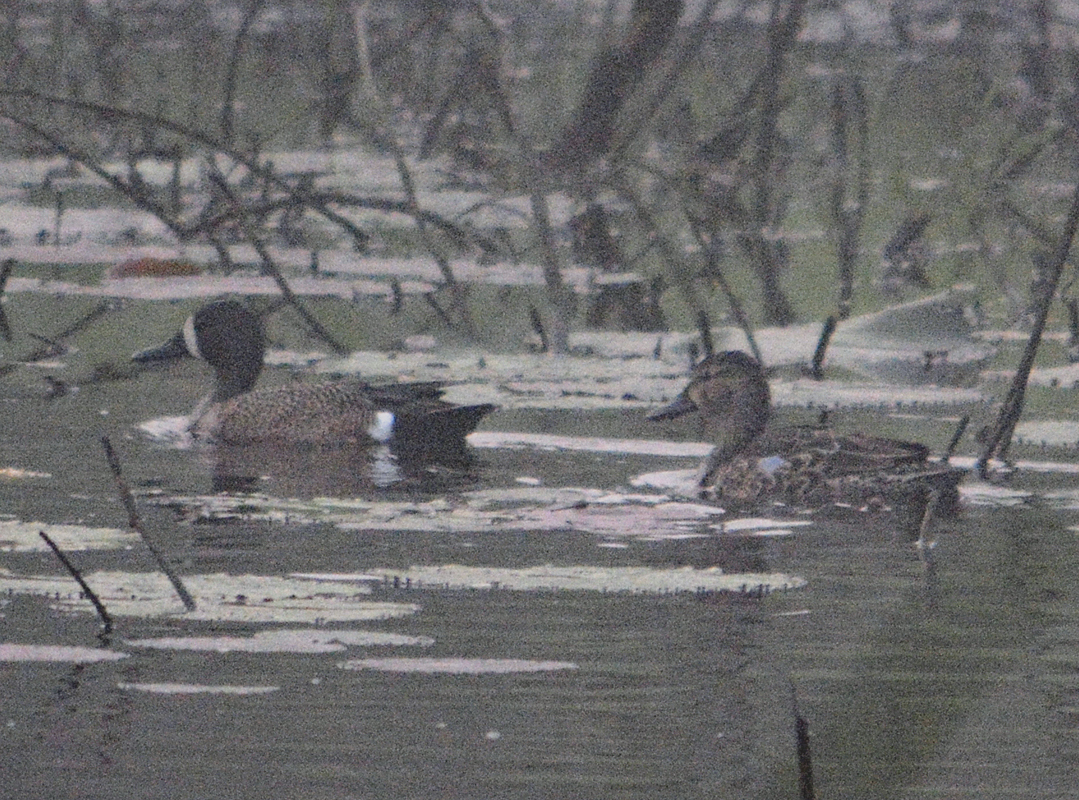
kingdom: Animalia
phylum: Chordata
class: Aves
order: Anseriformes
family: Anatidae
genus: Spatula
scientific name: Spatula discors
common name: Blue-winged teal
